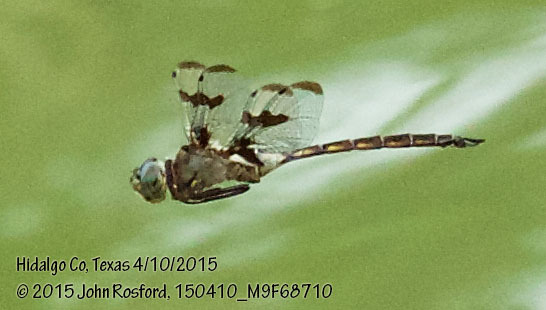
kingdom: Animalia
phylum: Arthropoda
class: Insecta
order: Odonata
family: Corduliidae
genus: Epitheca
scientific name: Epitheca princeps
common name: Prince baskettail
